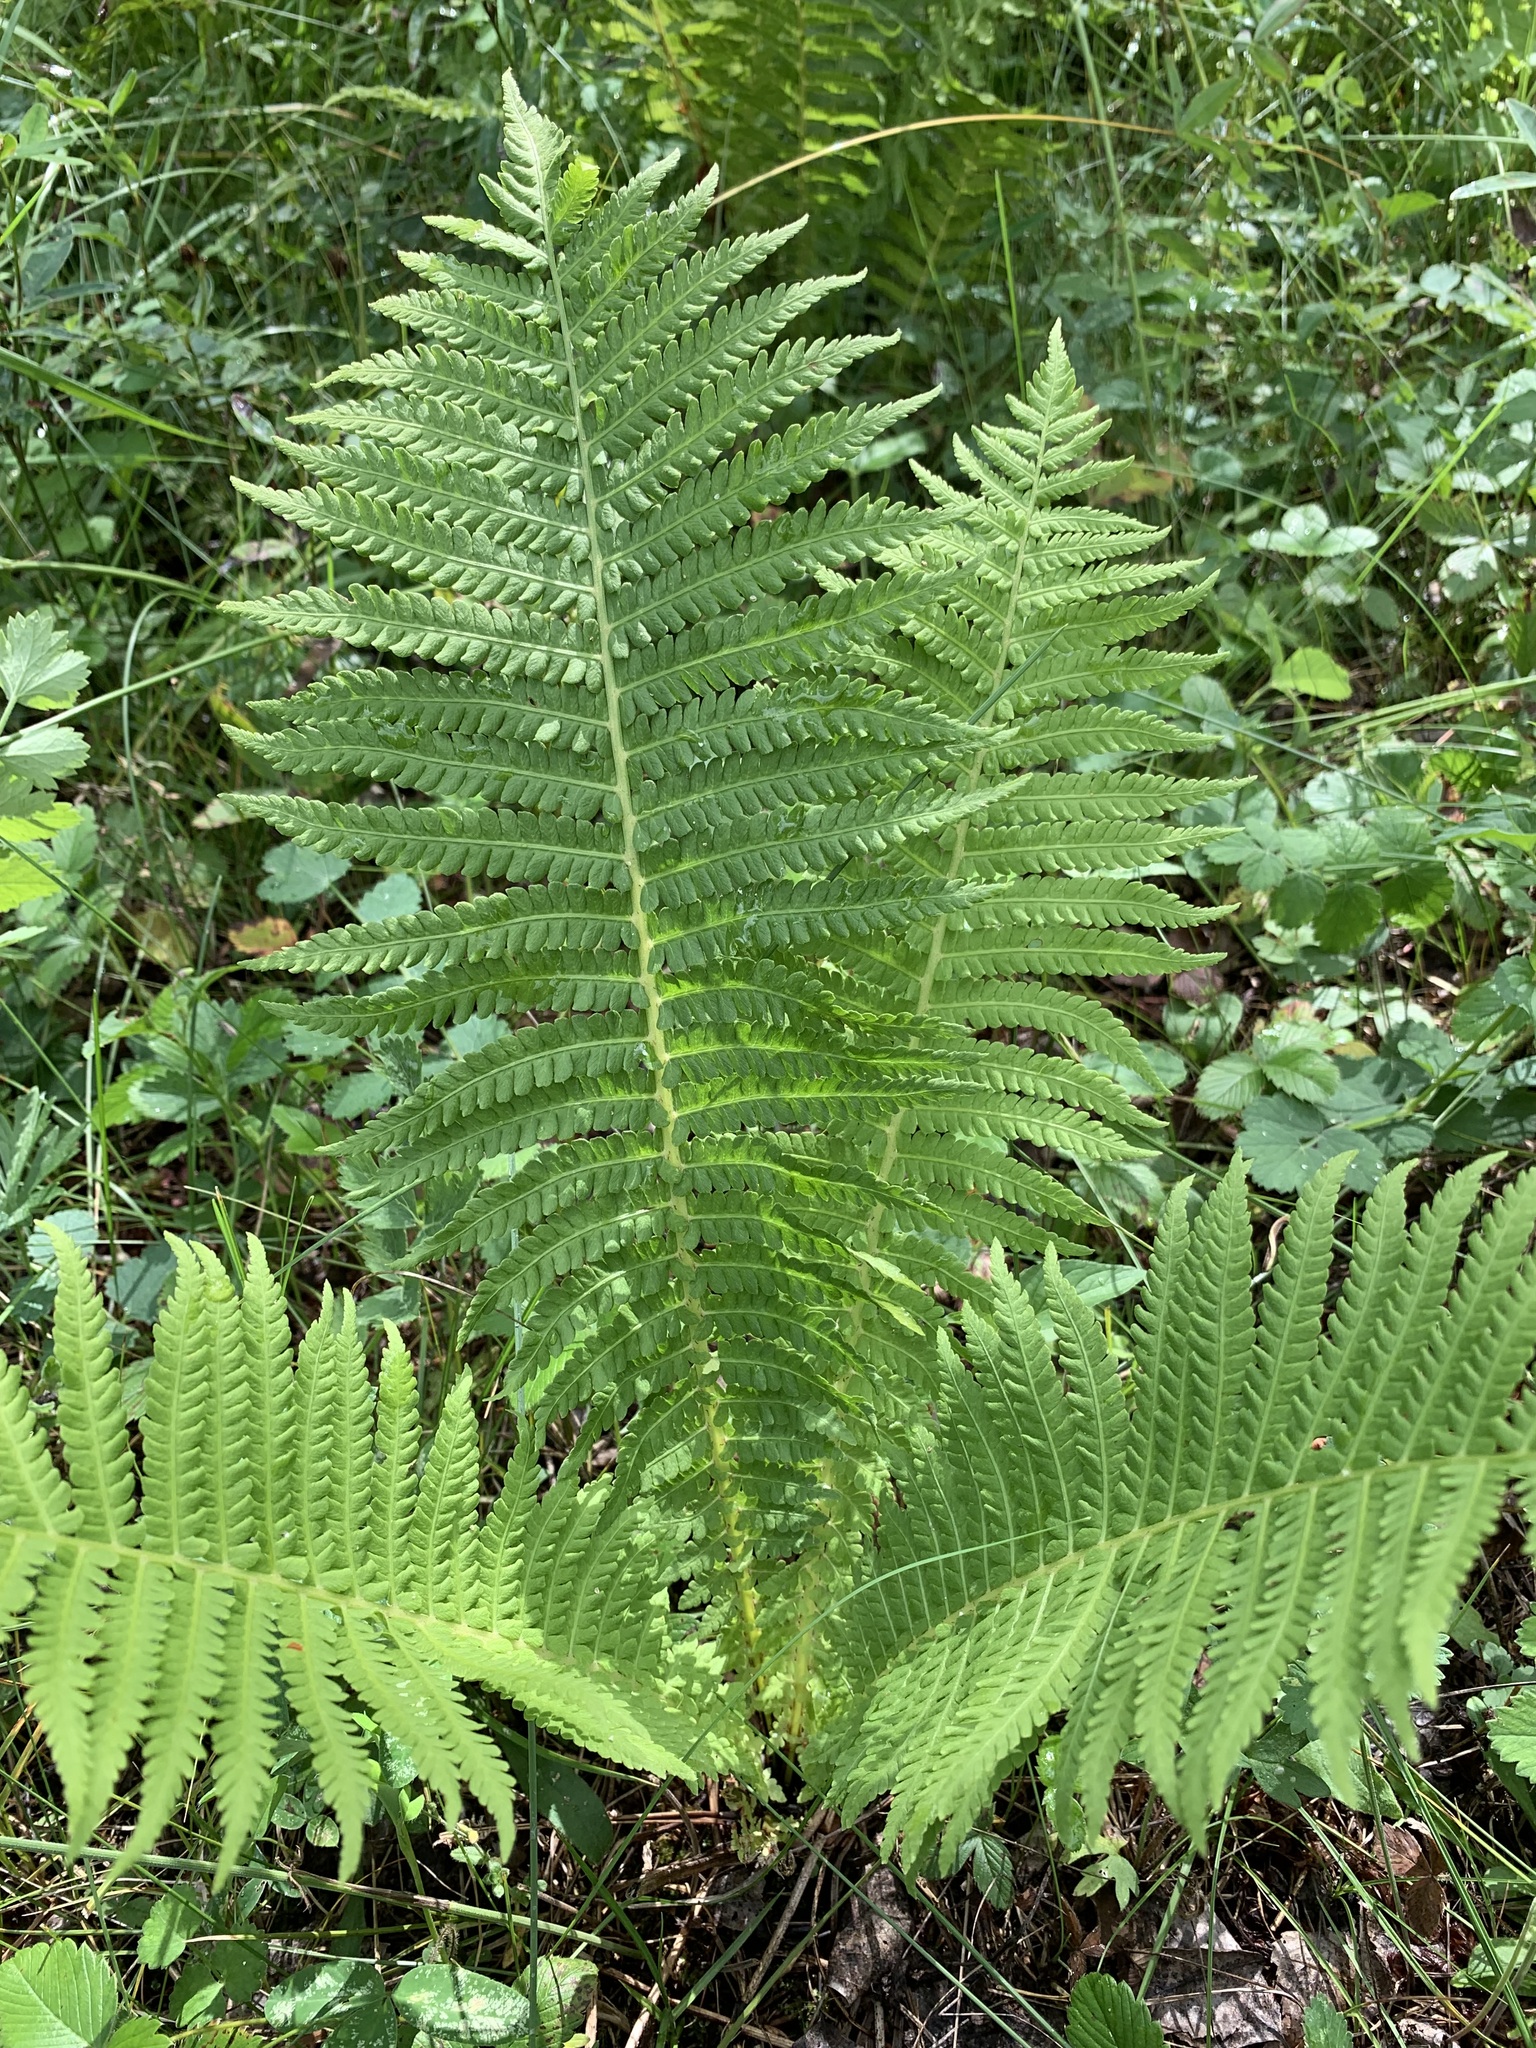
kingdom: Plantae
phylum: Tracheophyta
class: Polypodiopsida
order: Polypodiales
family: Onocleaceae
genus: Matteuccia
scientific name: Matteuccia struthiopteris
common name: Ostrich fern
